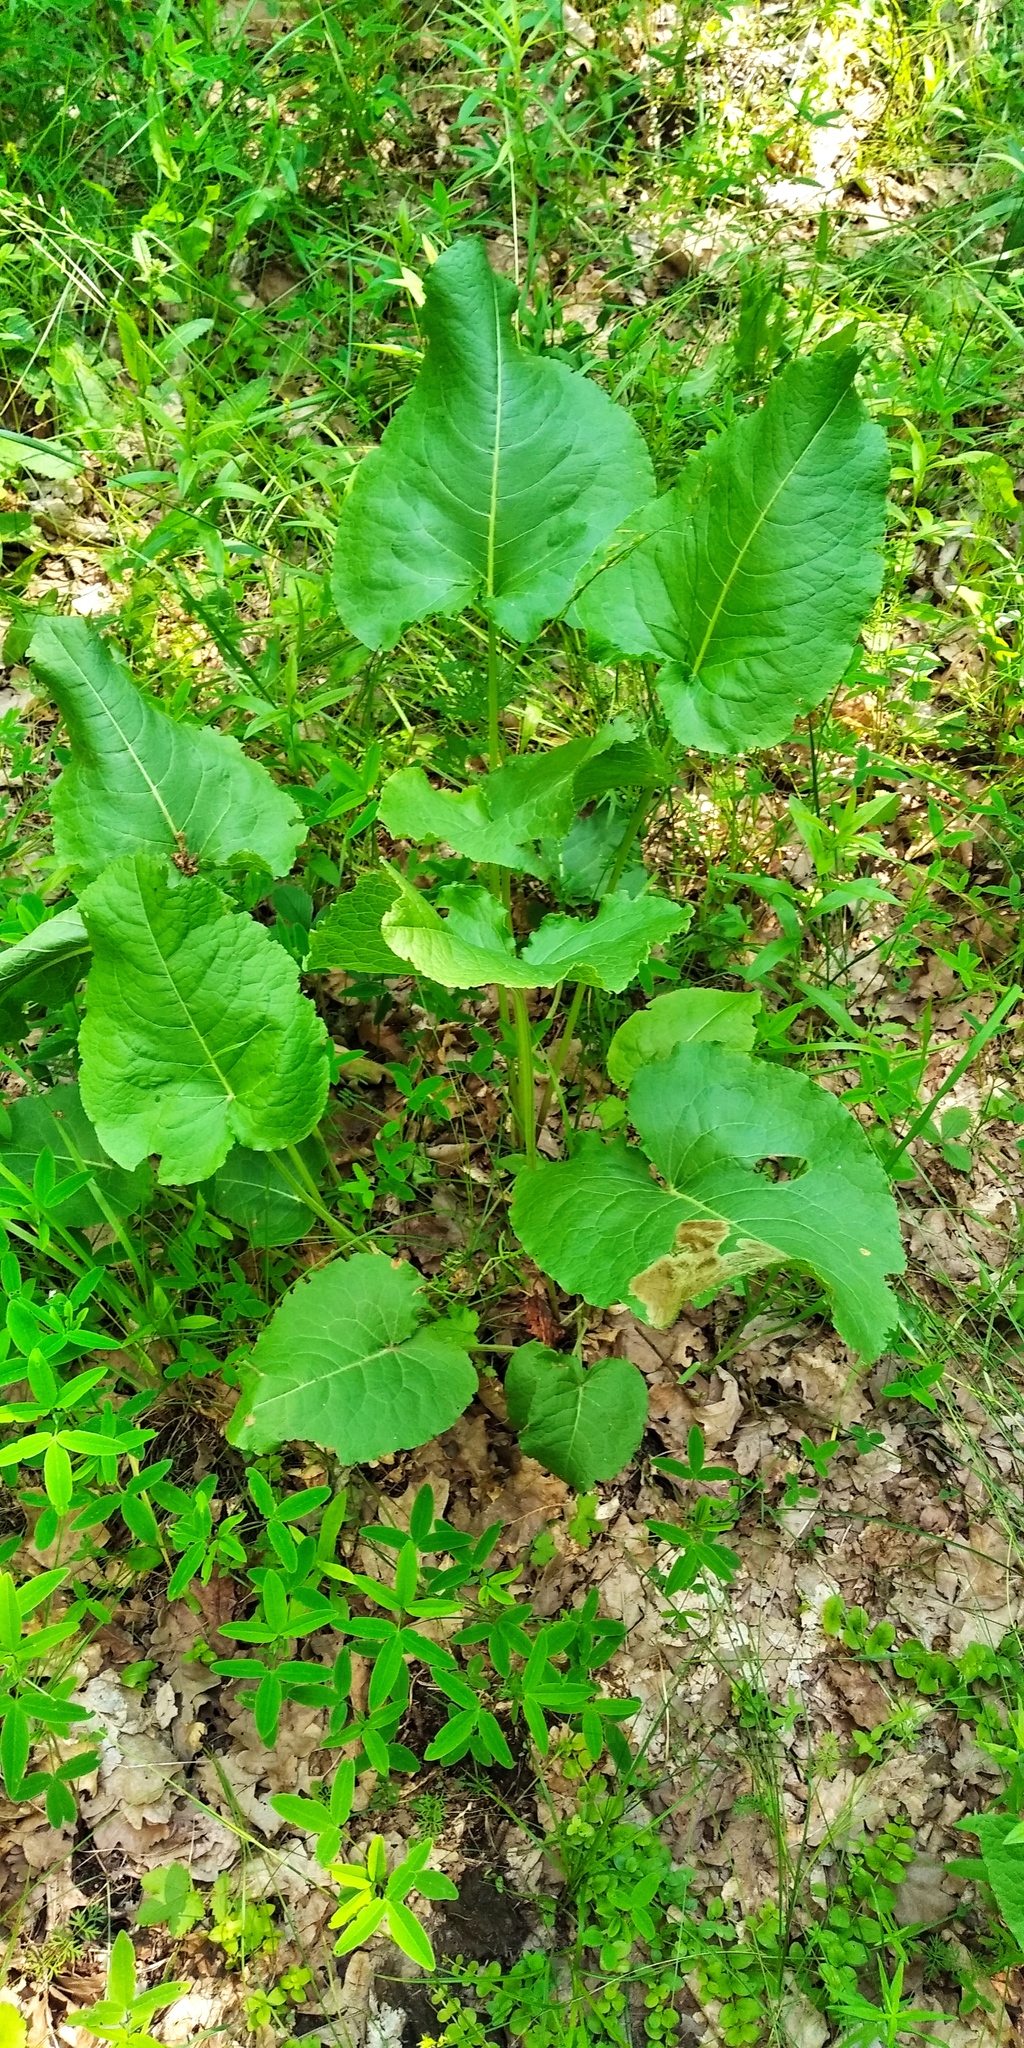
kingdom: Plantae
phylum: Tracheophyta
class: Magnoliopsida
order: Caryophyllales
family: Polygonaceae
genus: Rumex
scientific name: Rumex obtusifolius
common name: Bitter dock
